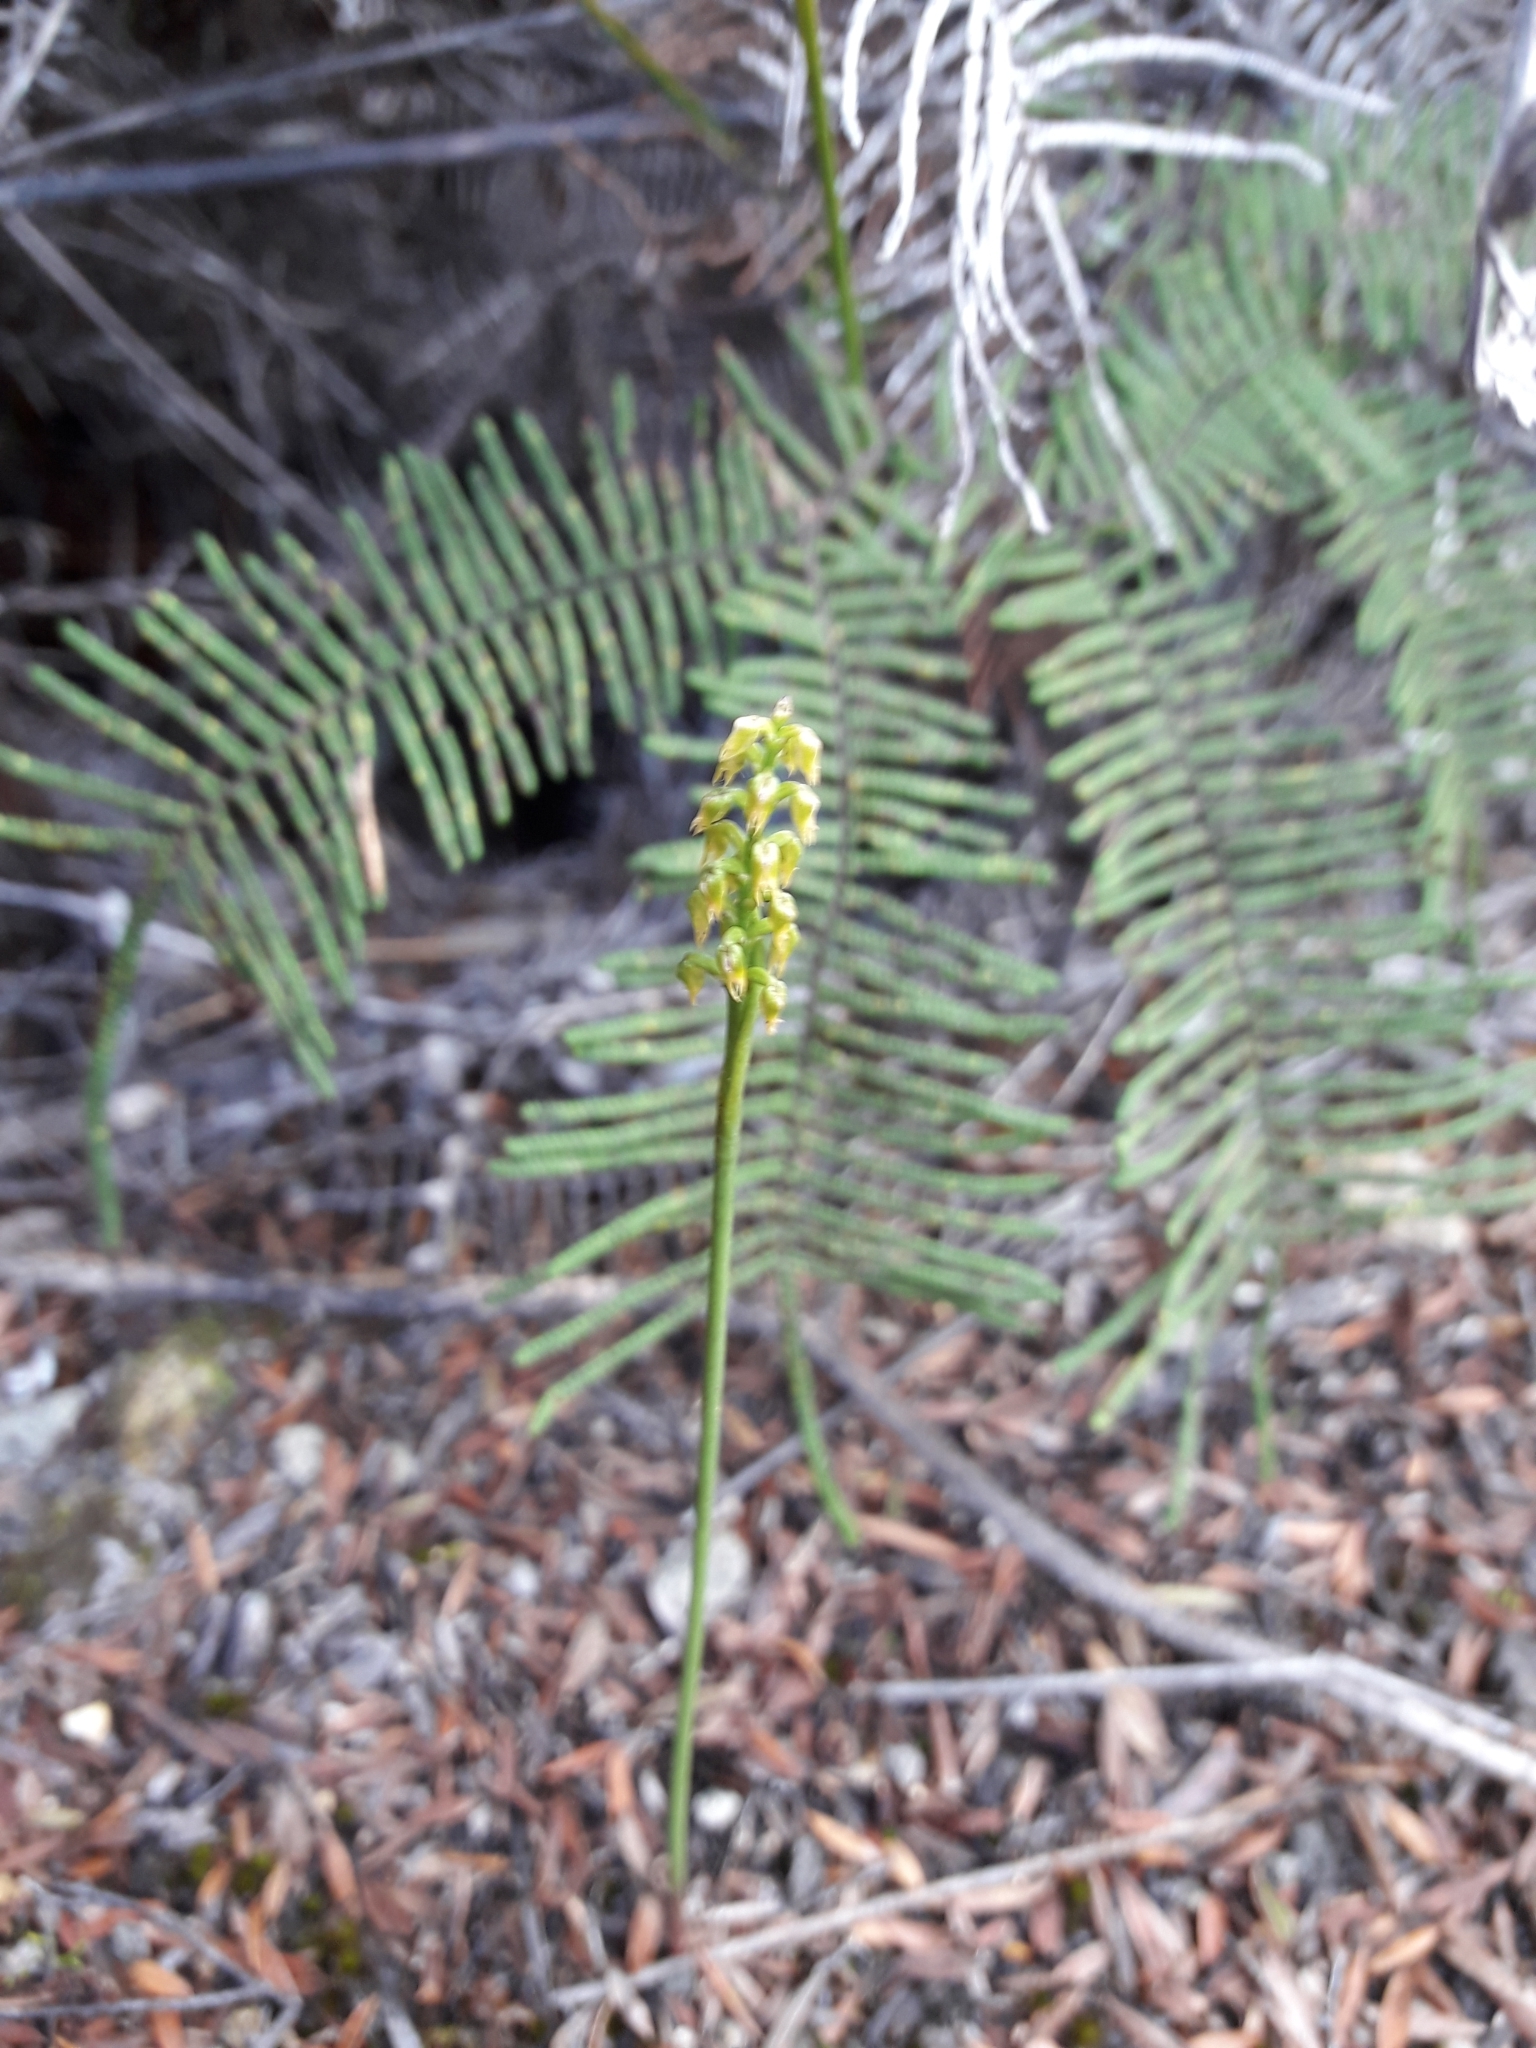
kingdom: Plantae
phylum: Tracheophyta
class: Liliopsida
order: Asparagales
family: Orchidaceae
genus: Genoplesium
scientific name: Genoplesium pumilum
